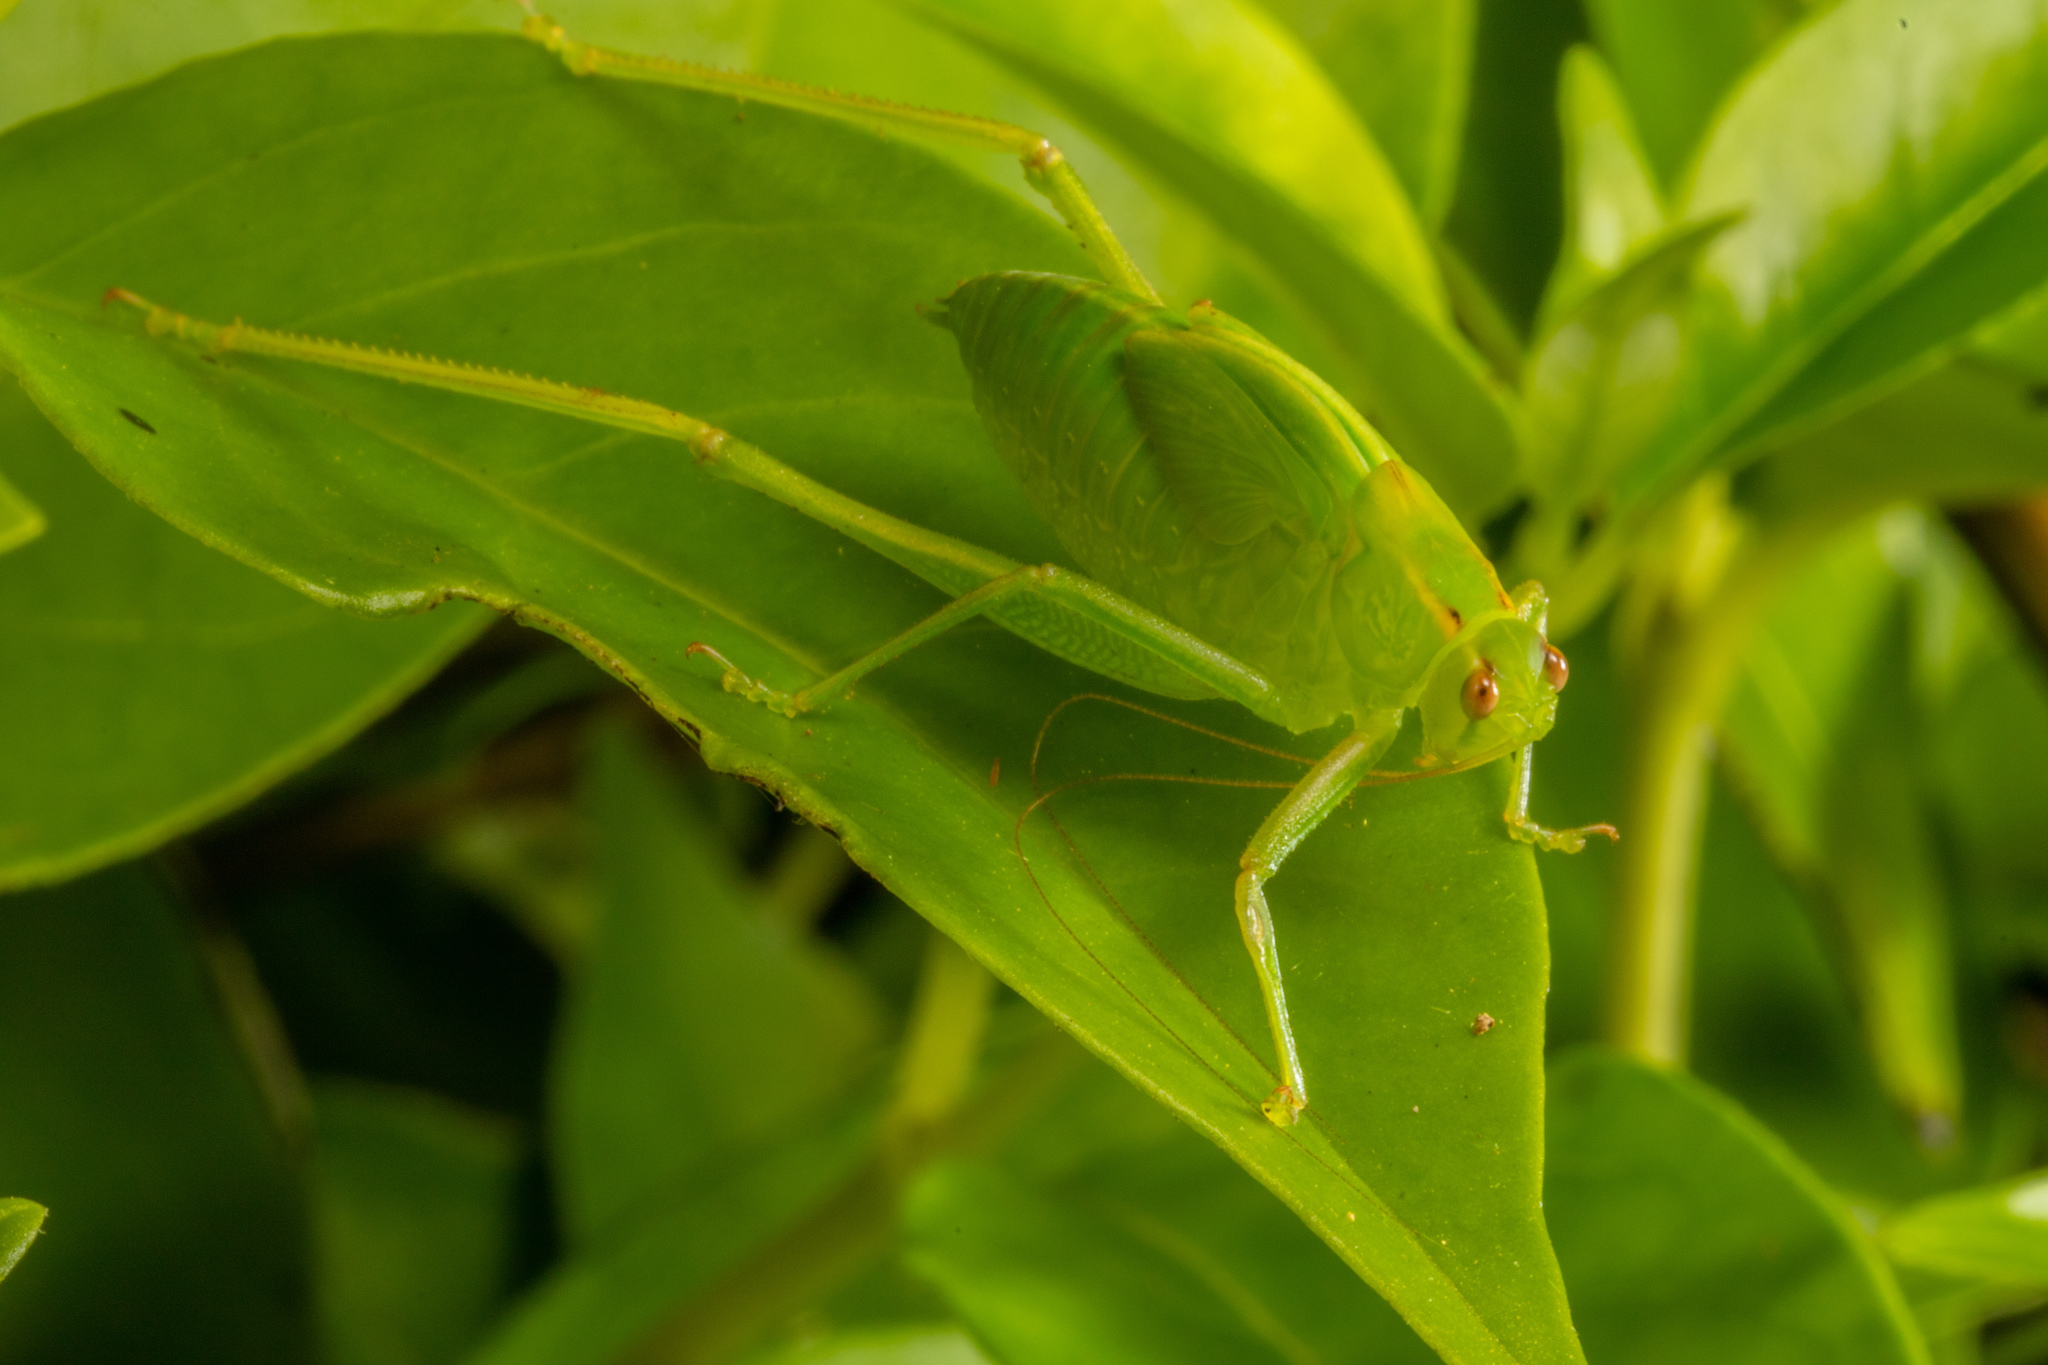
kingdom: Animalia
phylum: Arthropoda
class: Insecta
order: Orthoptera
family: Tettigoniidae
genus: Caedicia
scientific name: Caedicia simplex
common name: Common garden katydid
